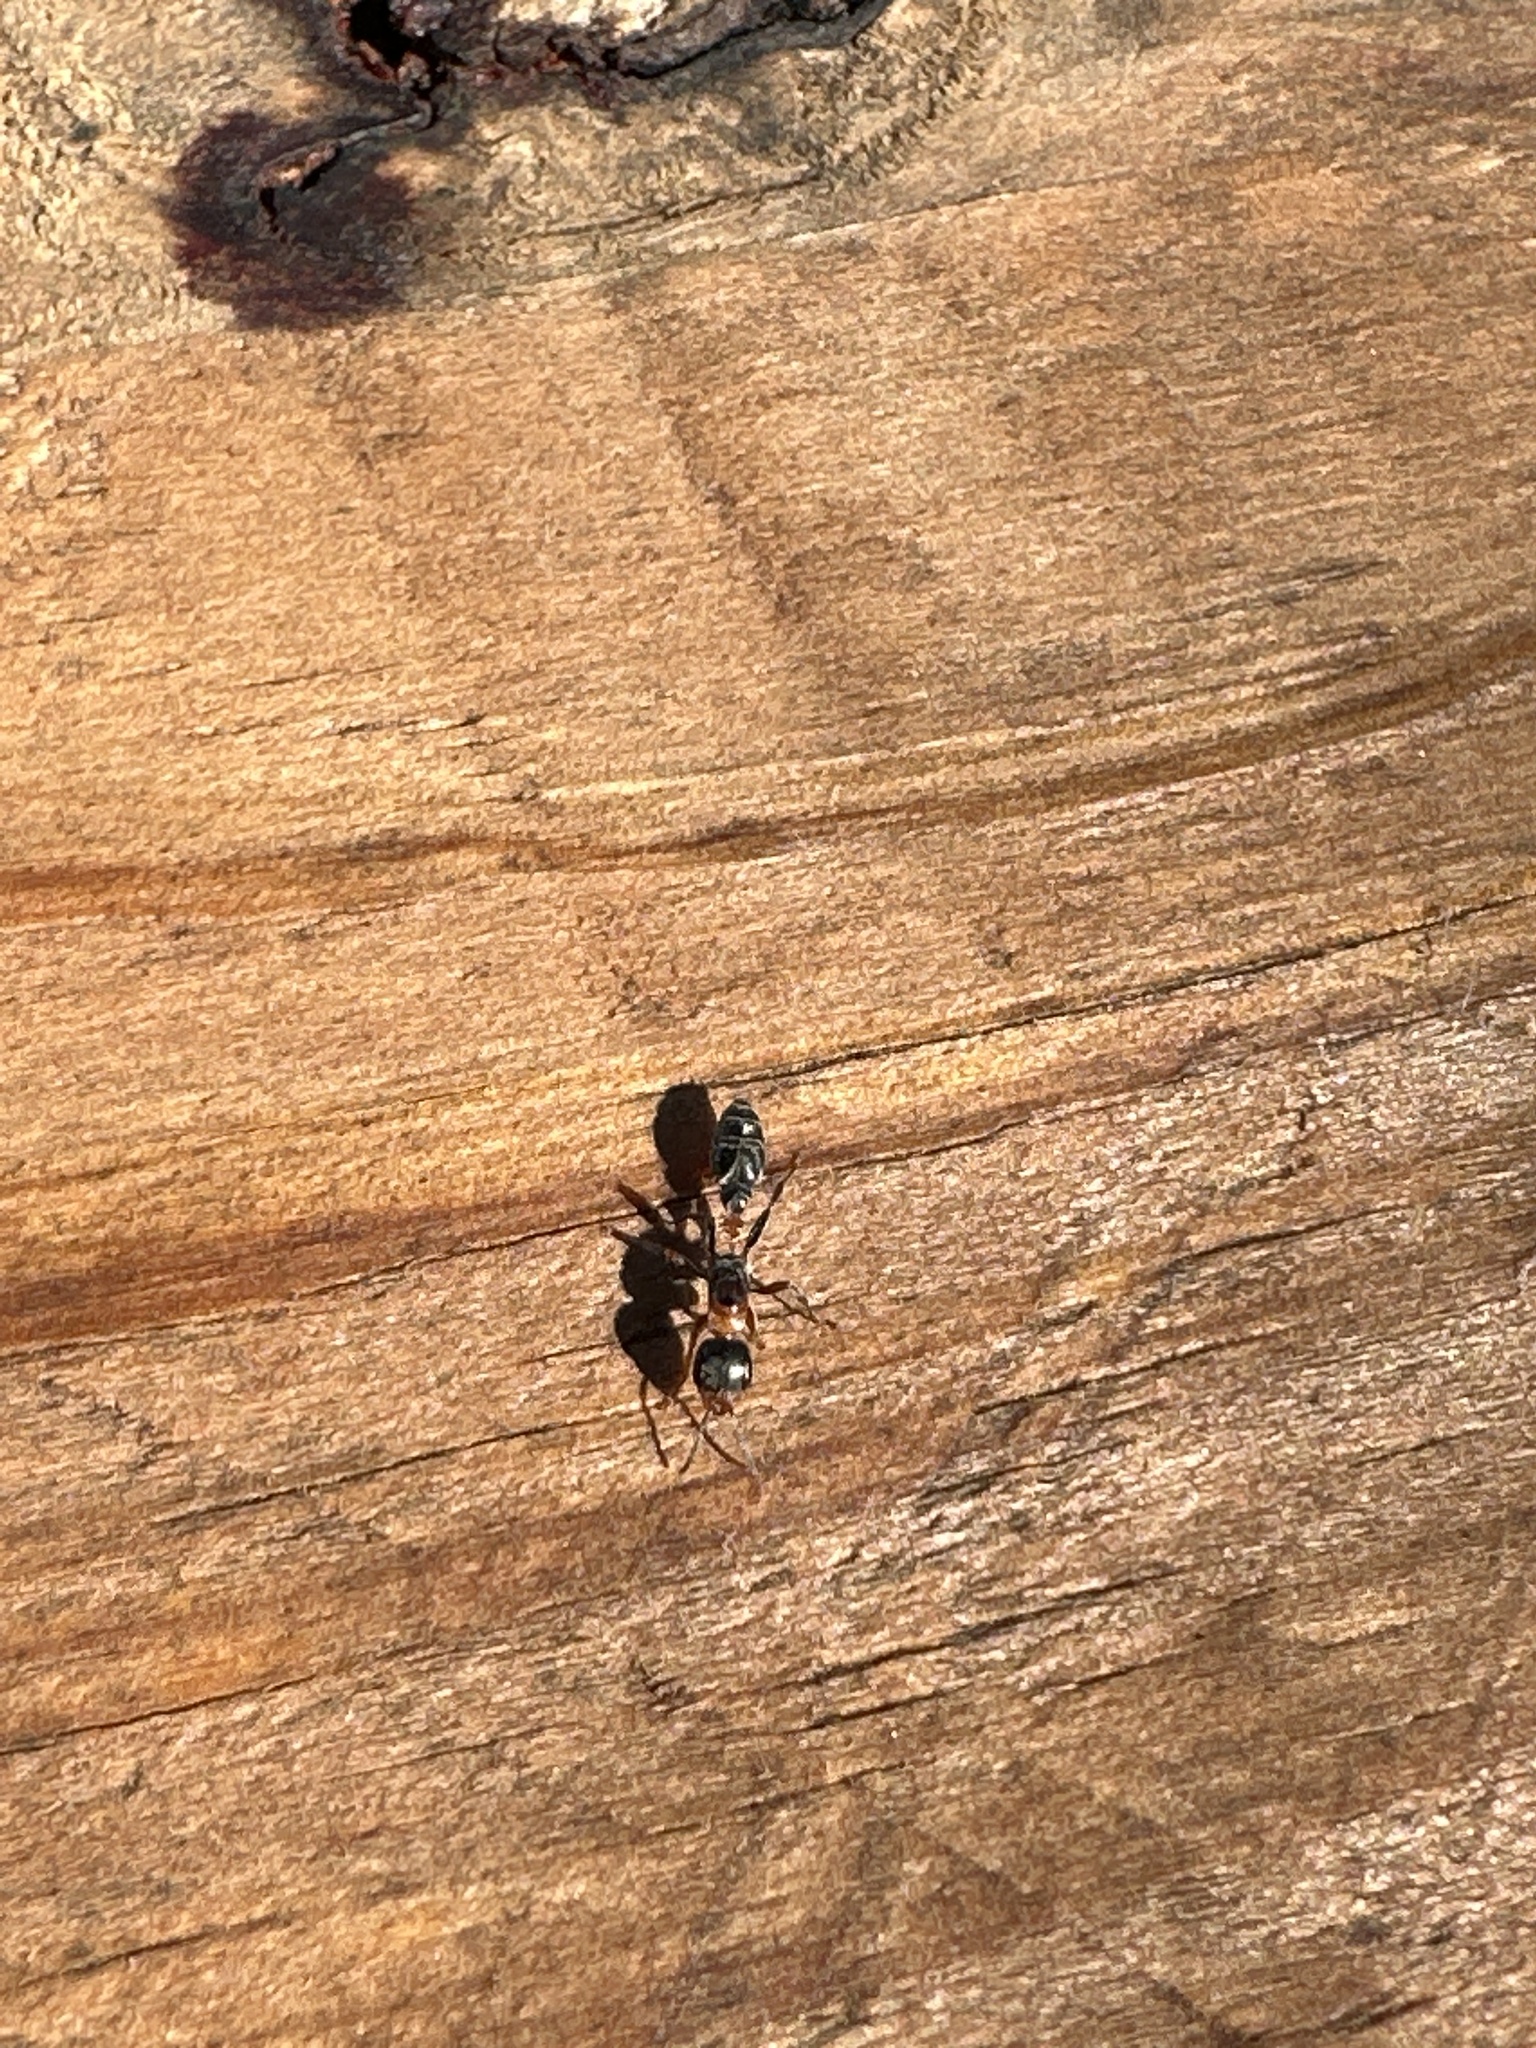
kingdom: Animalia
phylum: Arthropoda
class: Insecta
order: Hymenoptera
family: Formicidae
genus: Pseudomyrmex
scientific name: Pseudomyrmex gracilis
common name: Graceful twig ant
